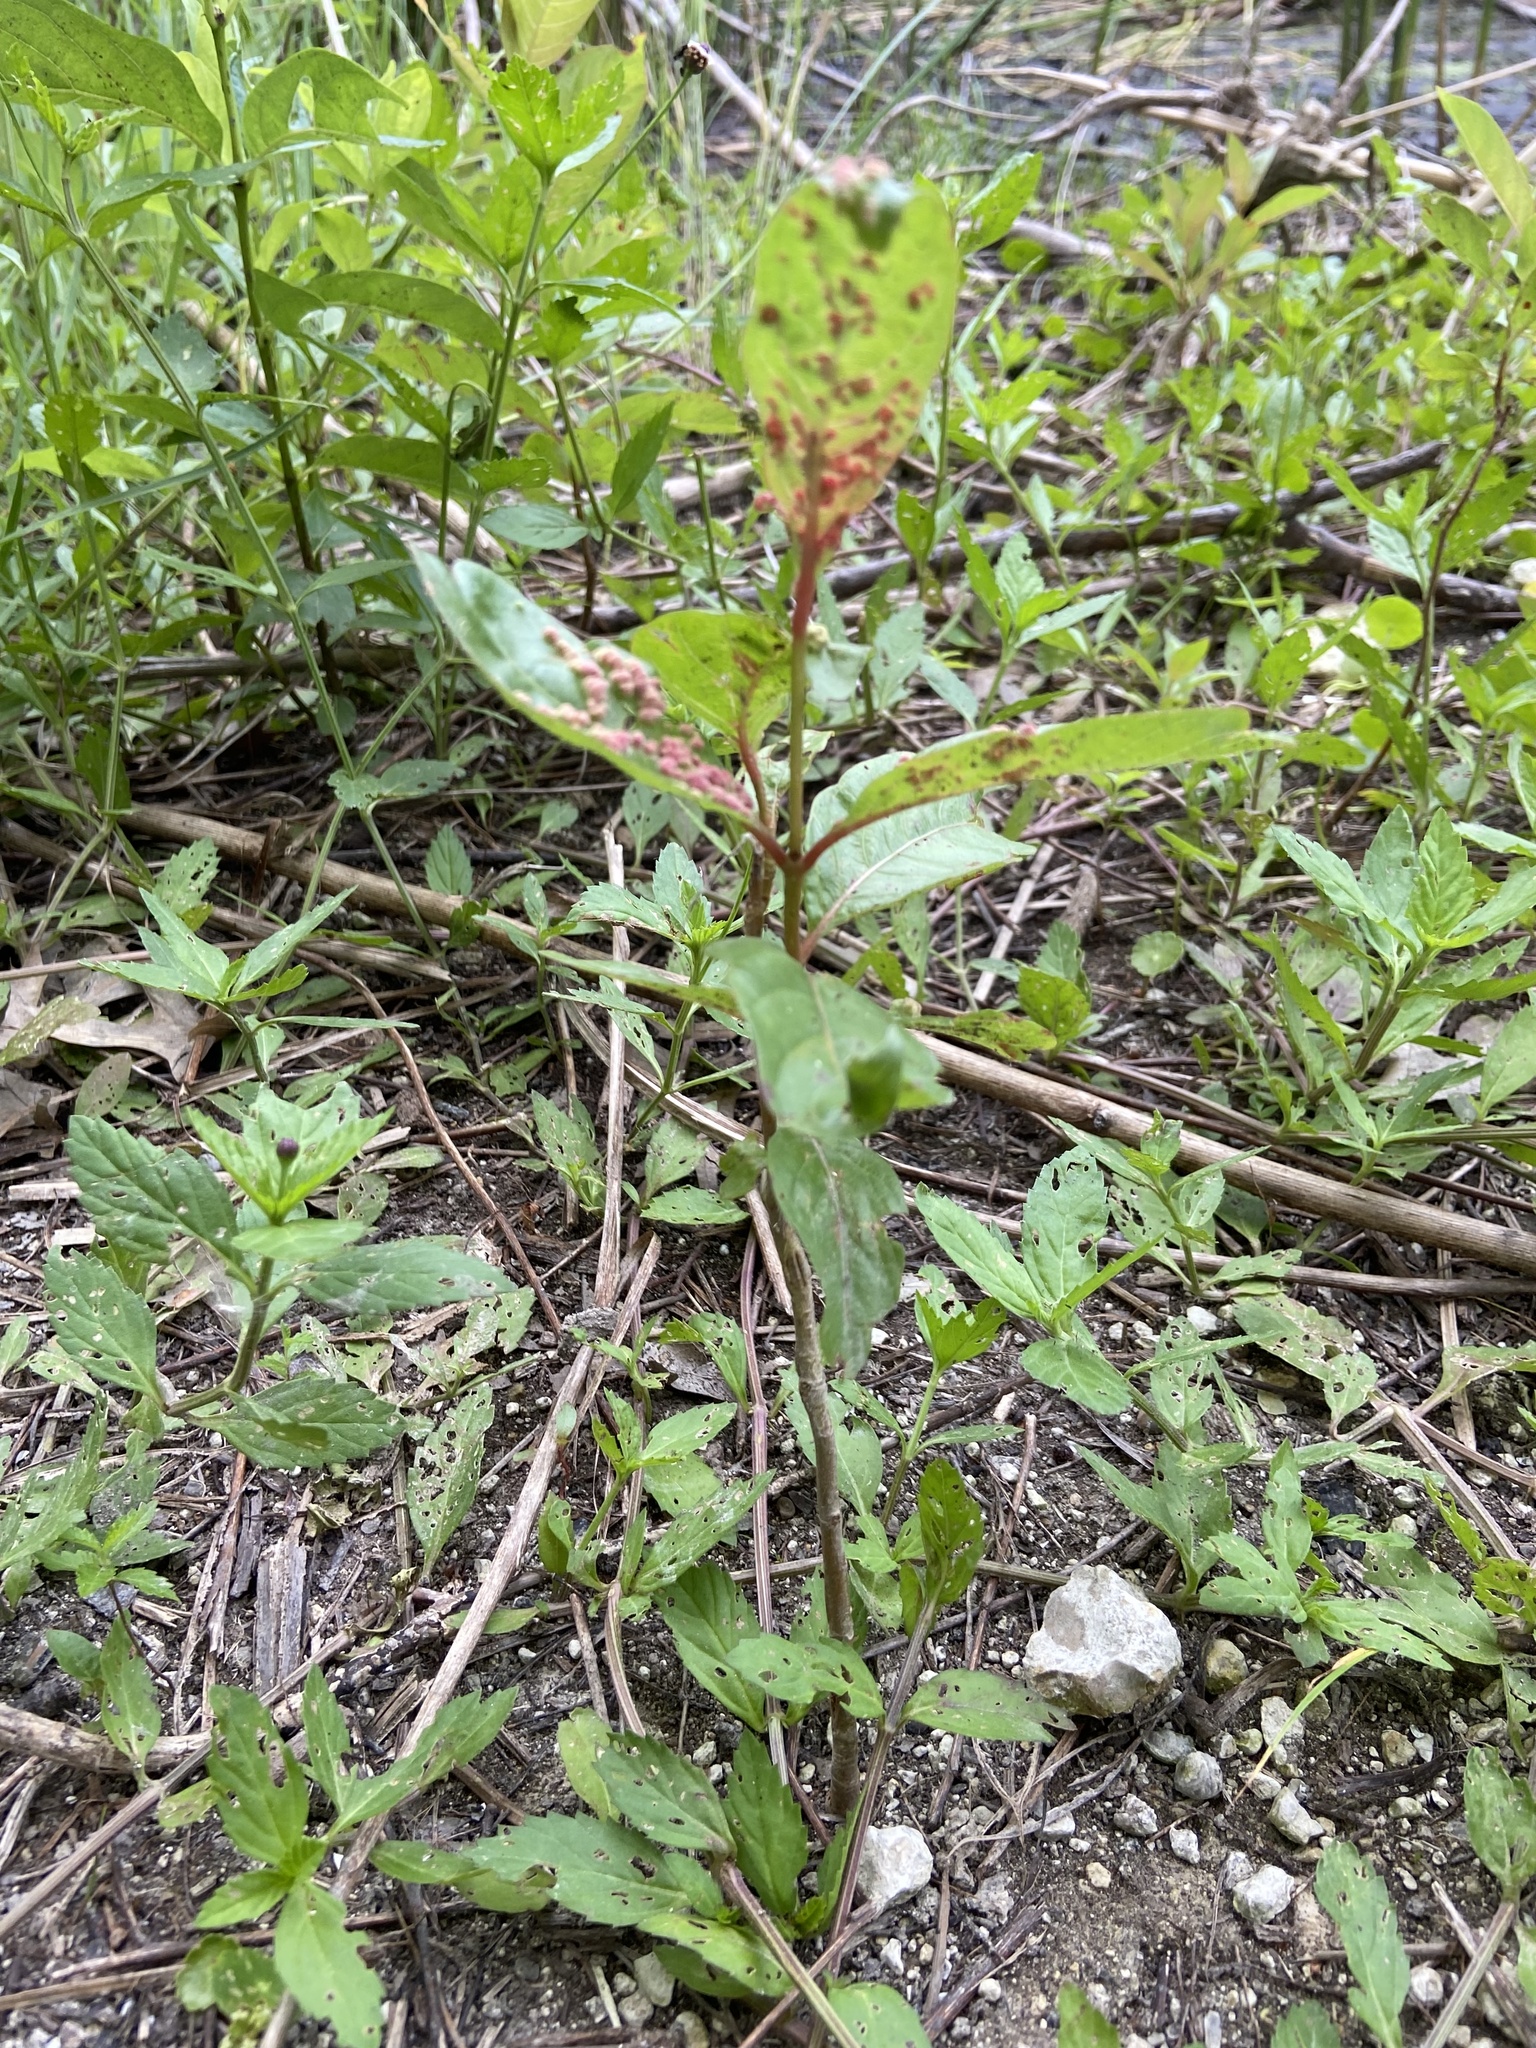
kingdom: Animalia
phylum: Arthropoda
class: Arachnida
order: Trombidiformes
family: Eriophyidae
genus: Aceria
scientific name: Aceria
